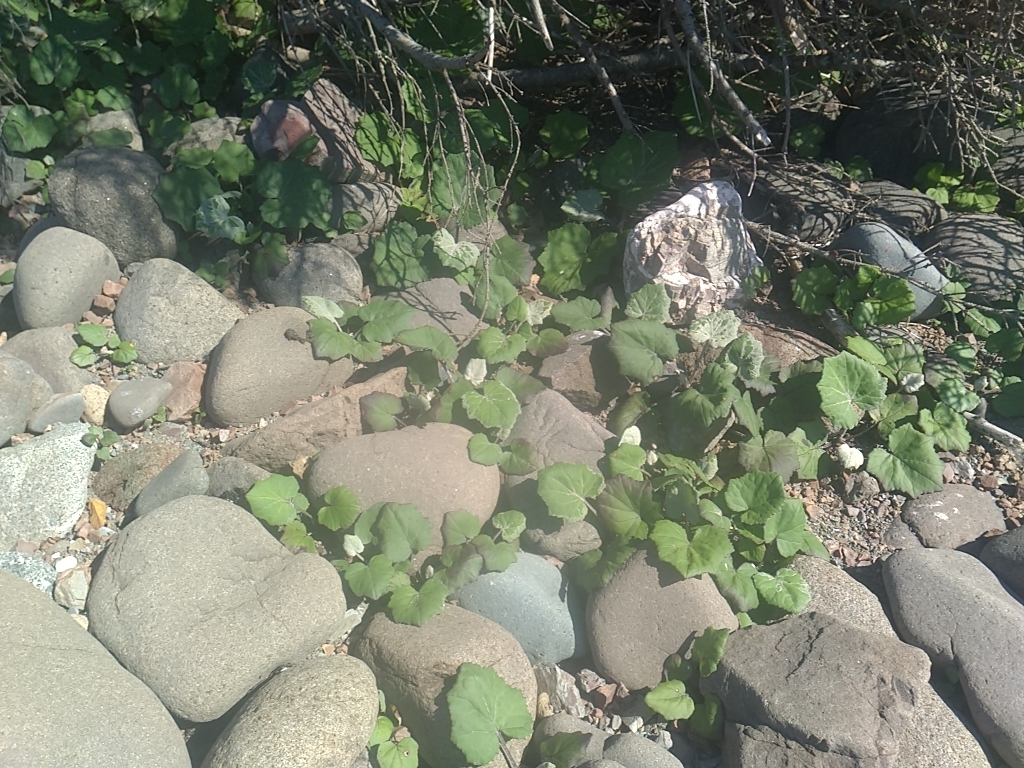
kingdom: Plantae
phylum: Tracheophyta
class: Magnoliopsida
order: Asterales
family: Asteraceae
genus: Tussilago
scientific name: Tussilago farfara
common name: Coltsfoot
